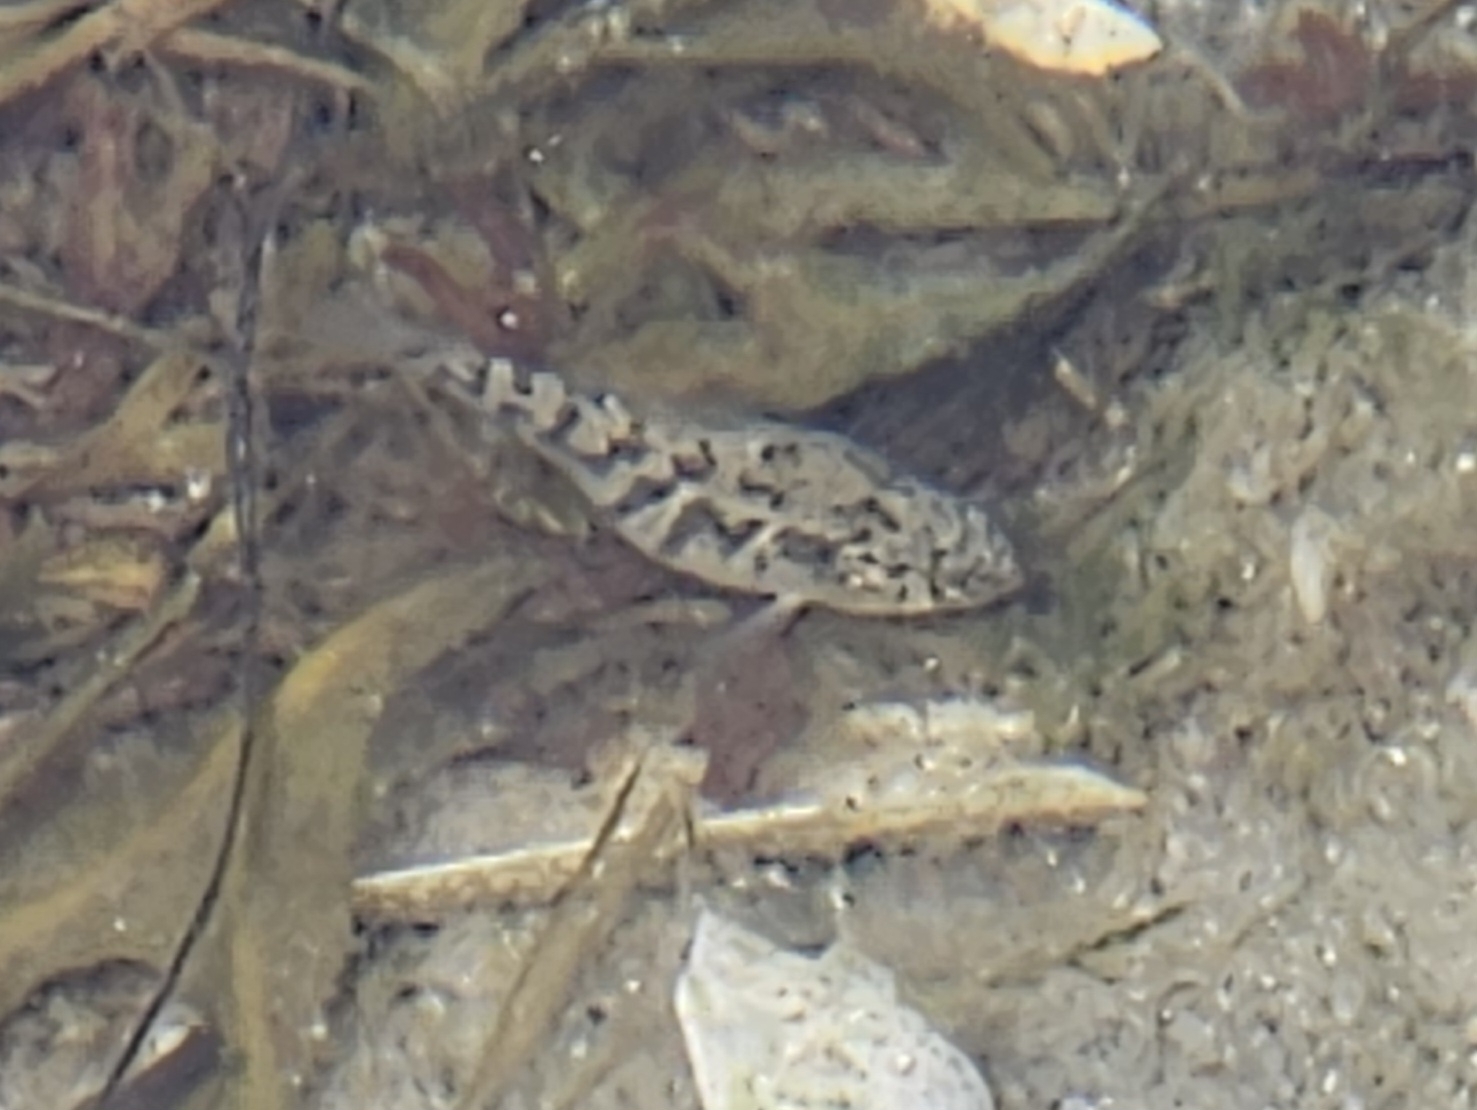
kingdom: Animalia
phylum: Chordata
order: Cyprinodontiformes
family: Cyprinodontidae
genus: Cyprinodon
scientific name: Cyprinodon variegatus
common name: Sheepshead minnow
